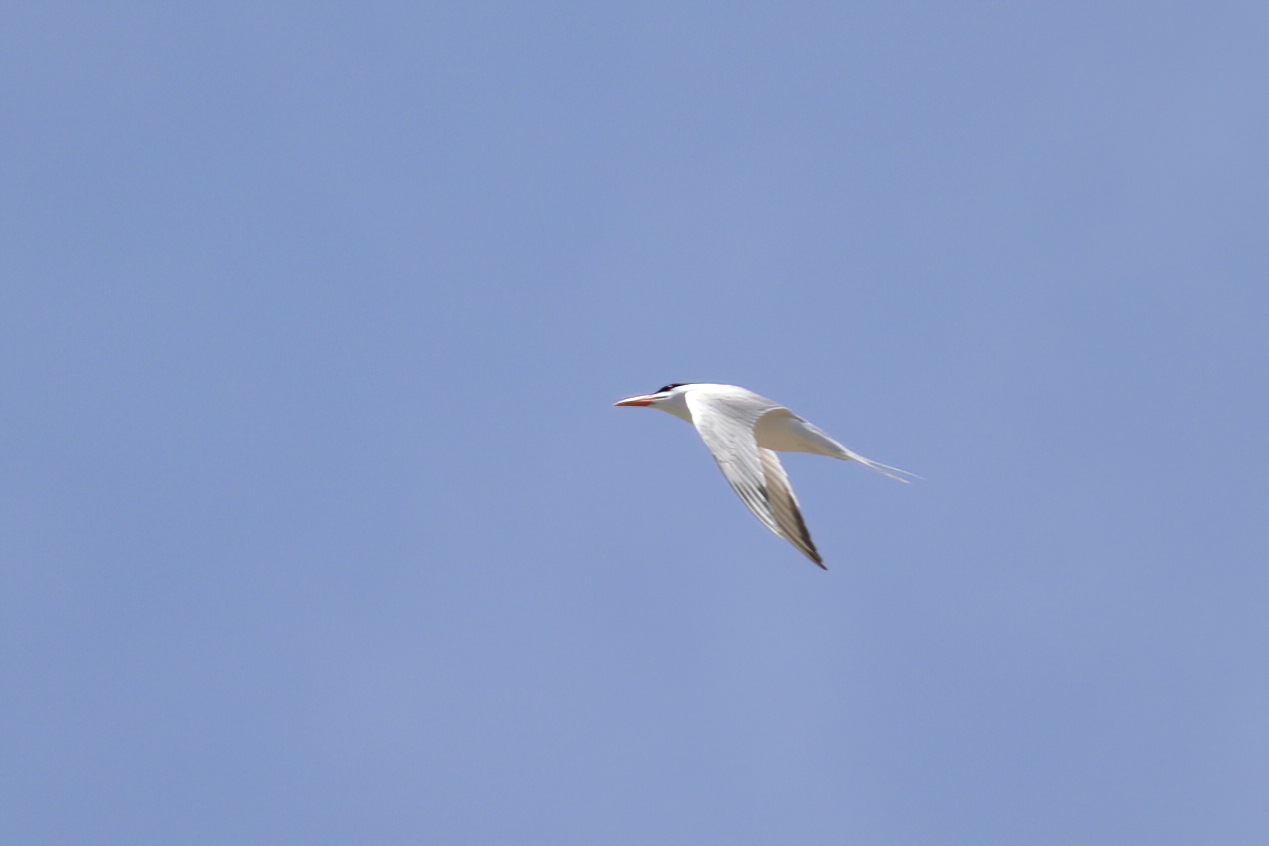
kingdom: Animalia
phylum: Chordata
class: Aves
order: Charadriiformes
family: Laridae
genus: Hydroprogne
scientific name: Hydroprogne caspia
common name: Caspian tern
